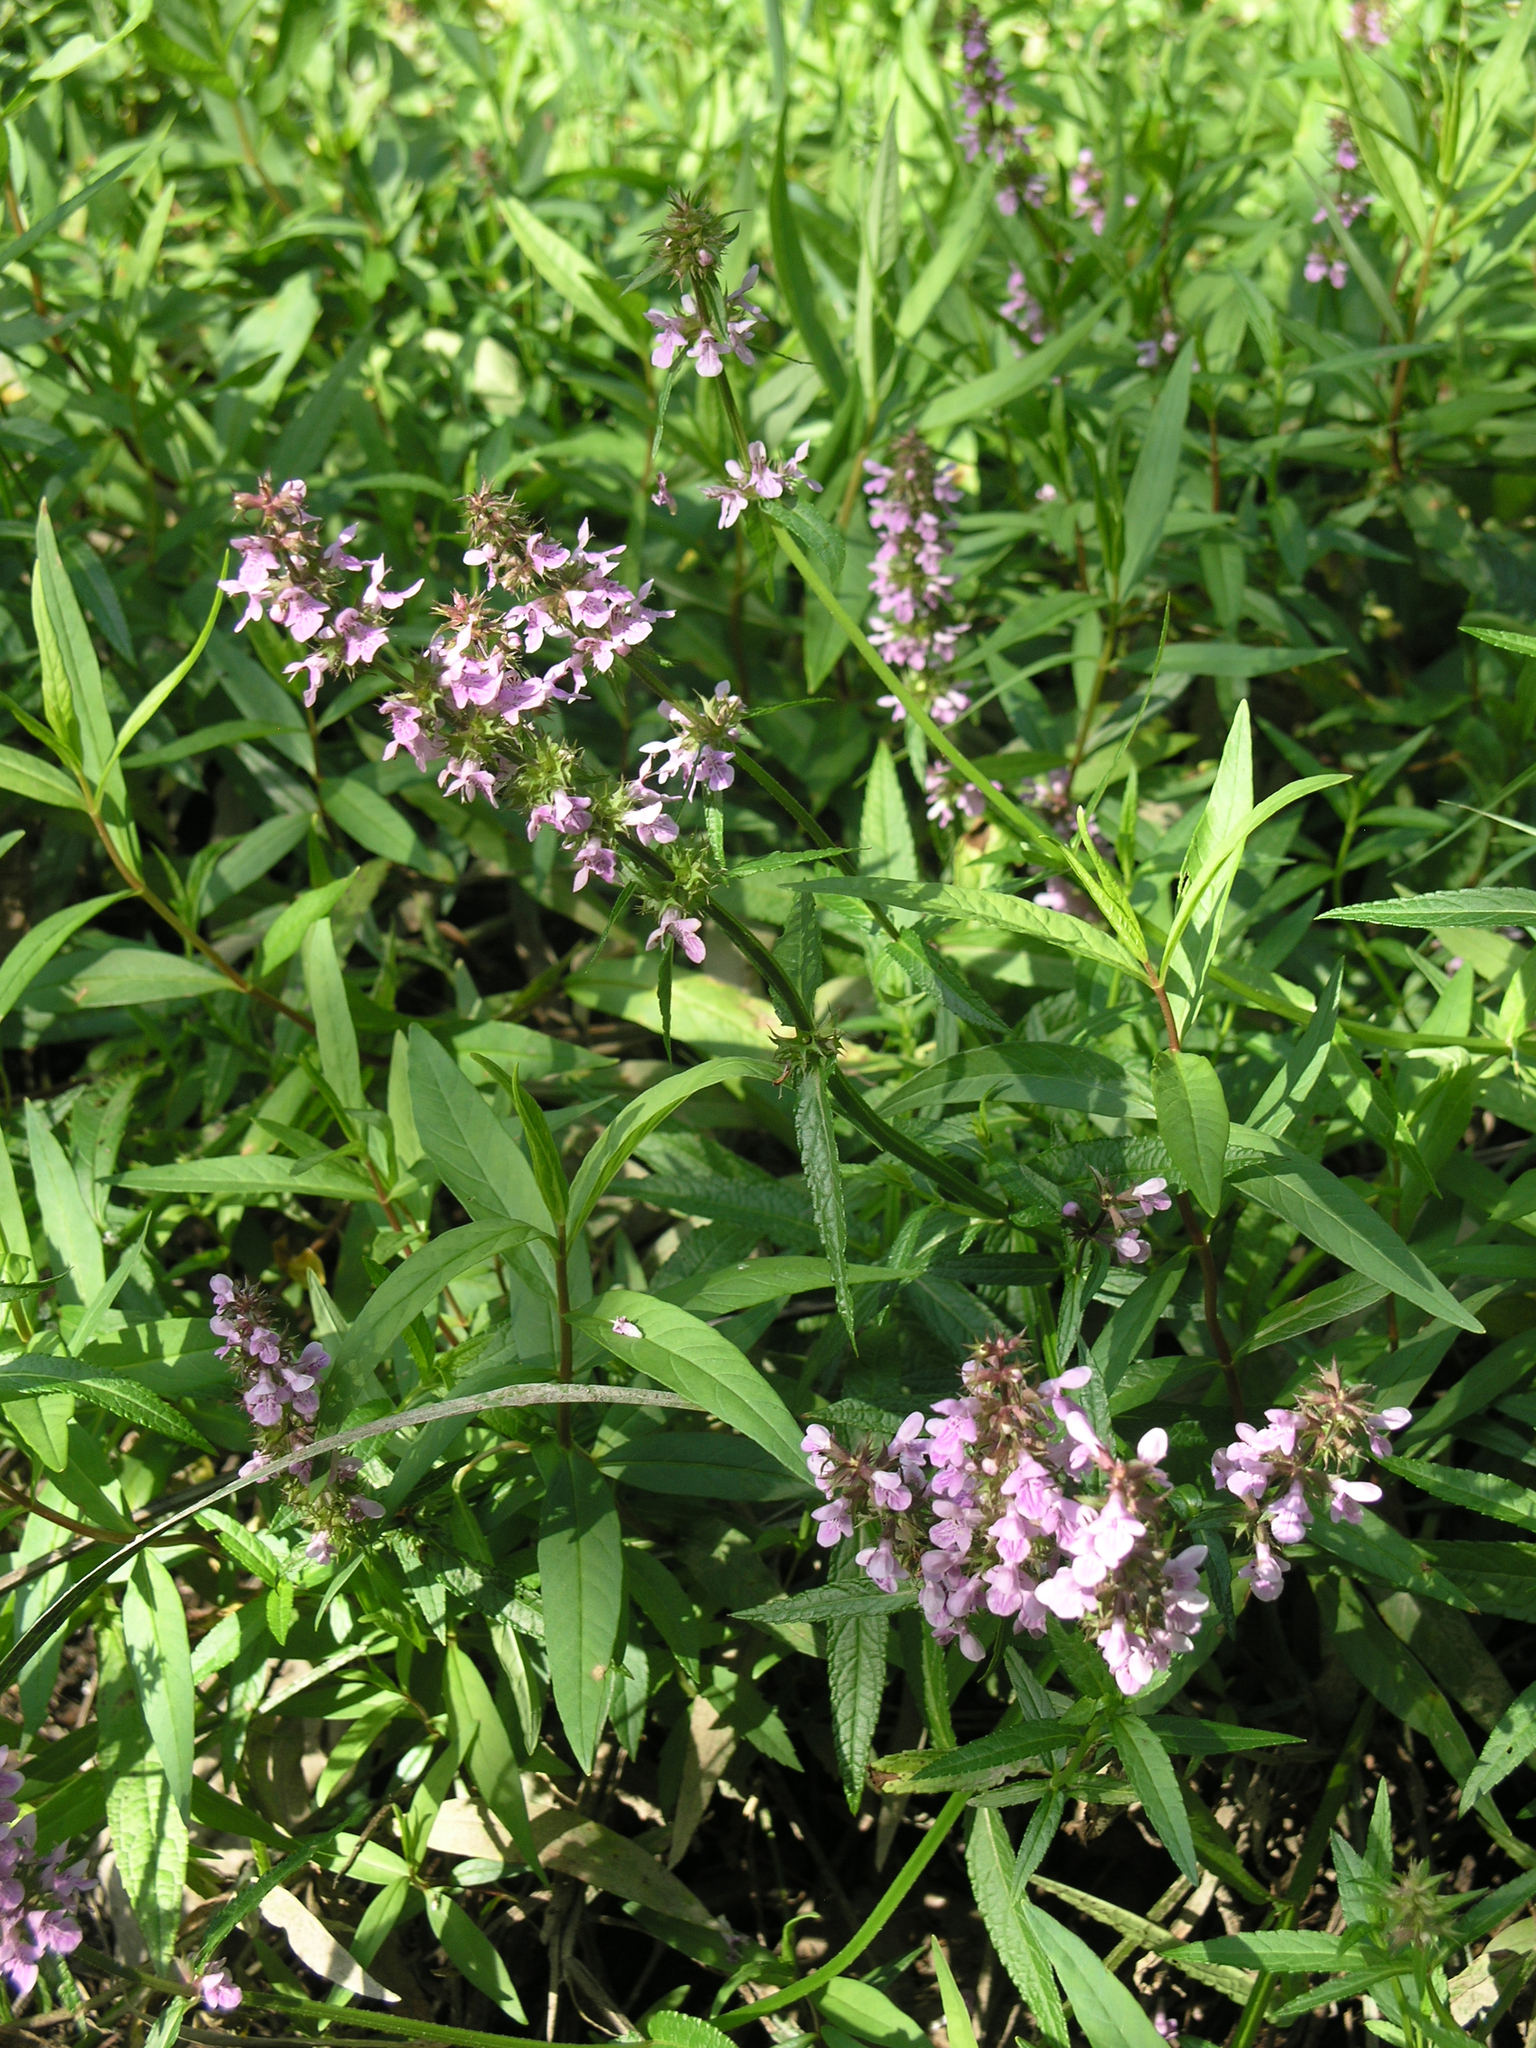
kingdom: Plantae
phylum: Tracheophyta
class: Magnoliopsida
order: Lamiales
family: Lamiaceae
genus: Stachys
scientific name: Stachys aspera
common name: Hyssopleaf hedgenettle
